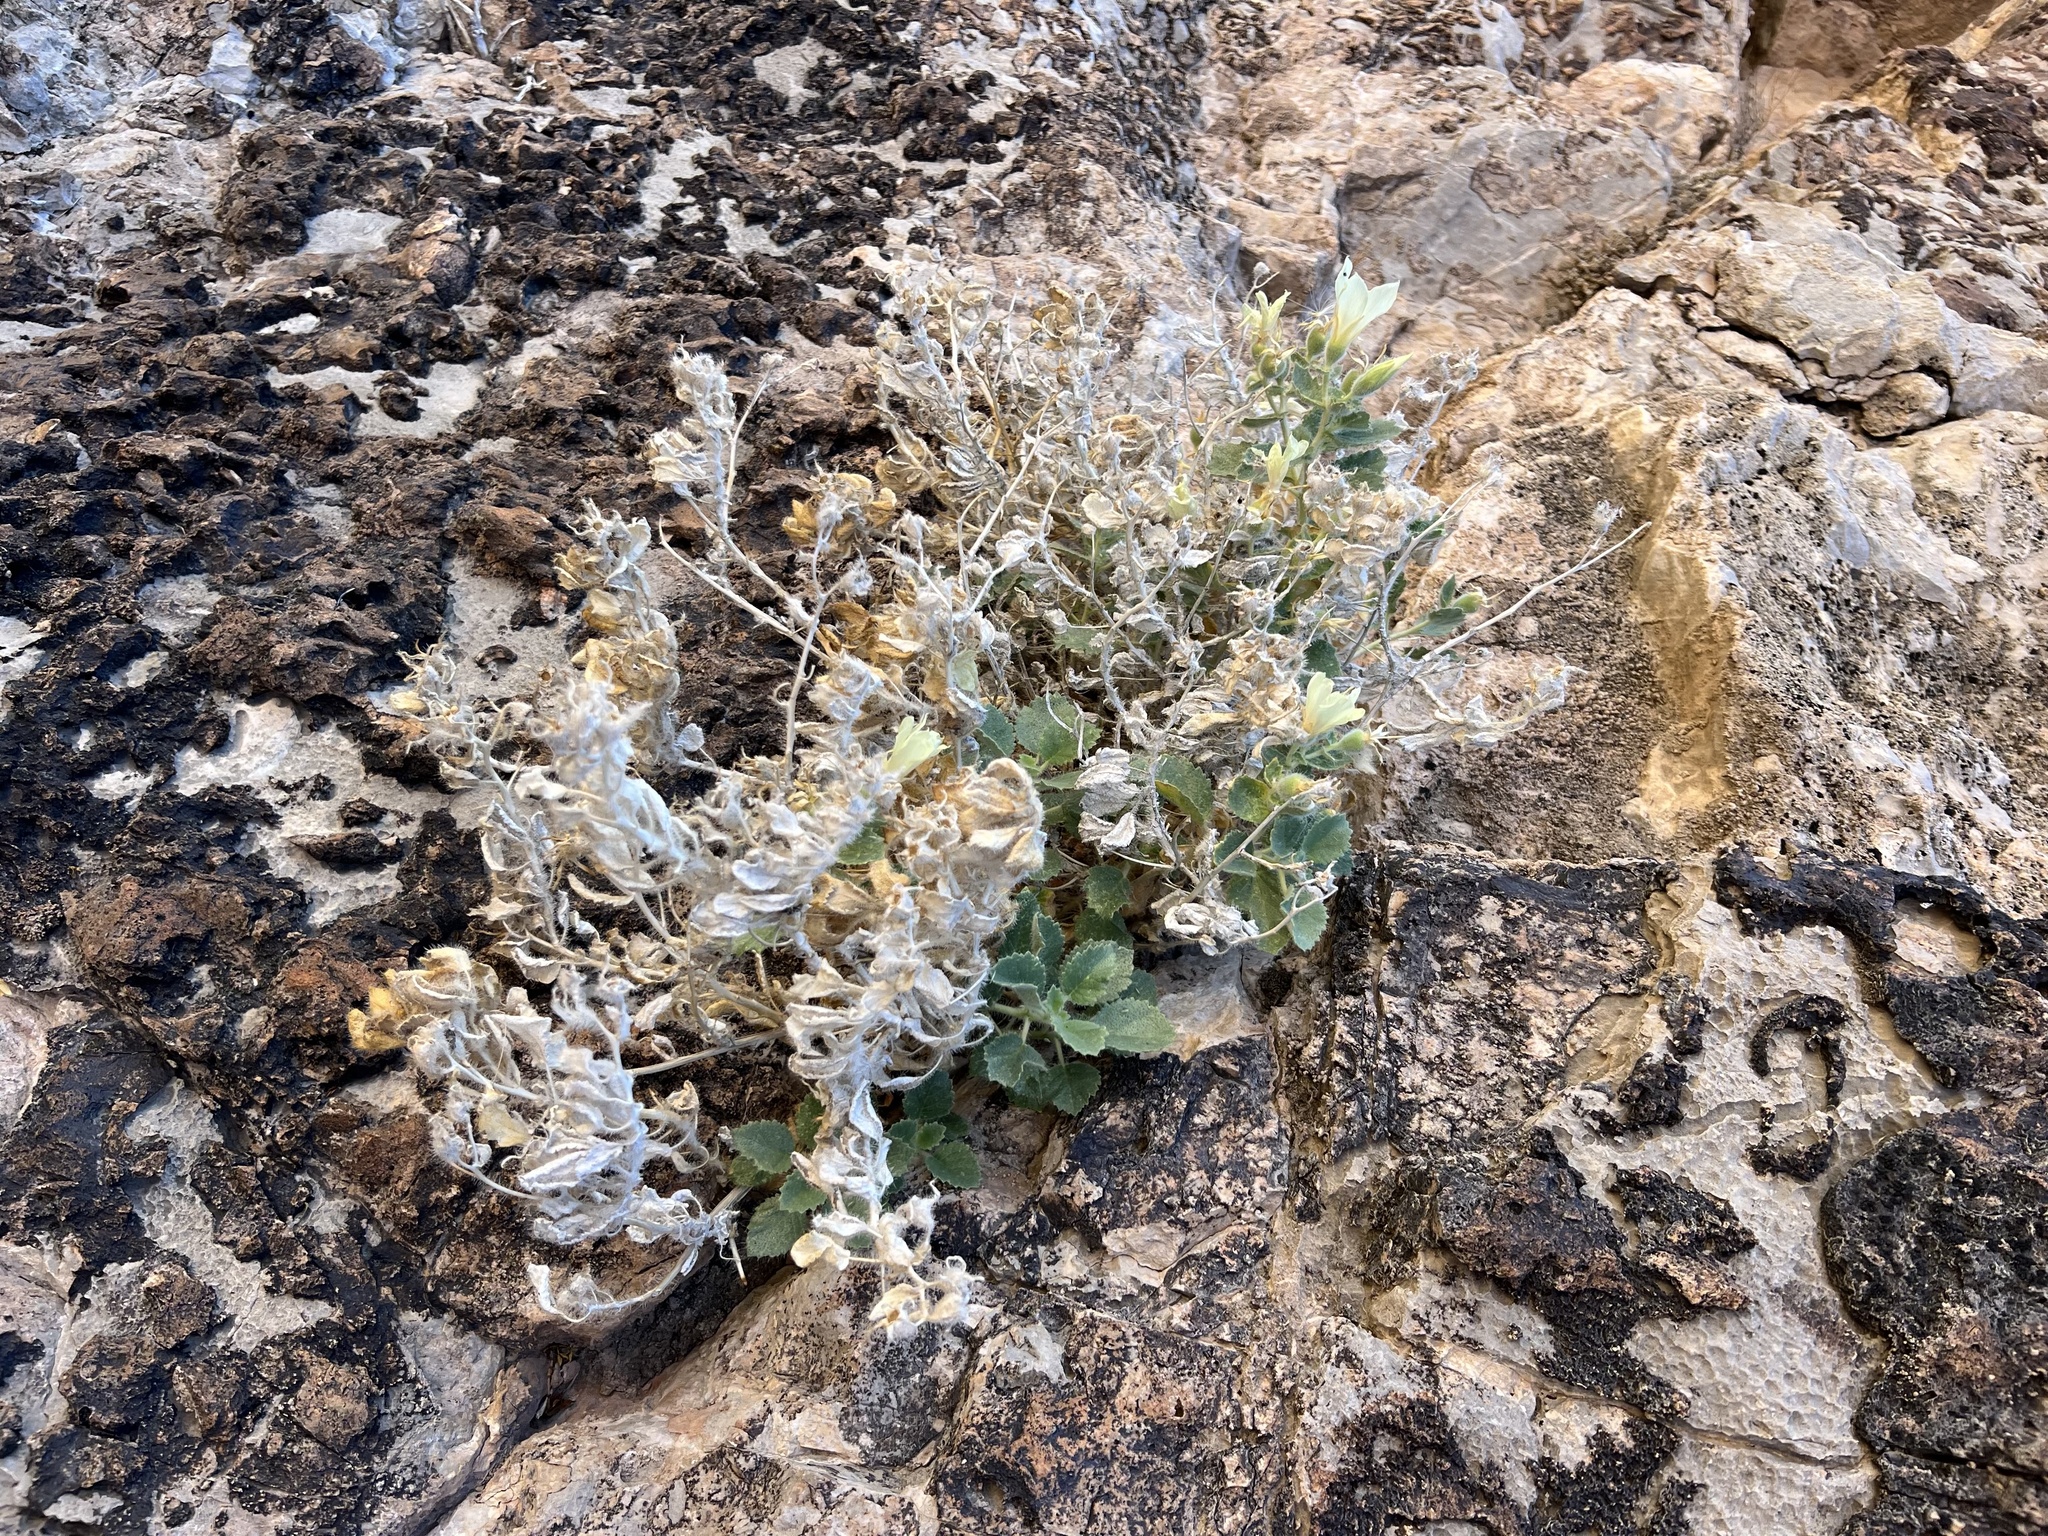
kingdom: Plantae
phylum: Tracheophyta
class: Magnoliopsida
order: Cornales
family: Loasaceae
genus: Eucnide
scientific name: Eucnide urens
